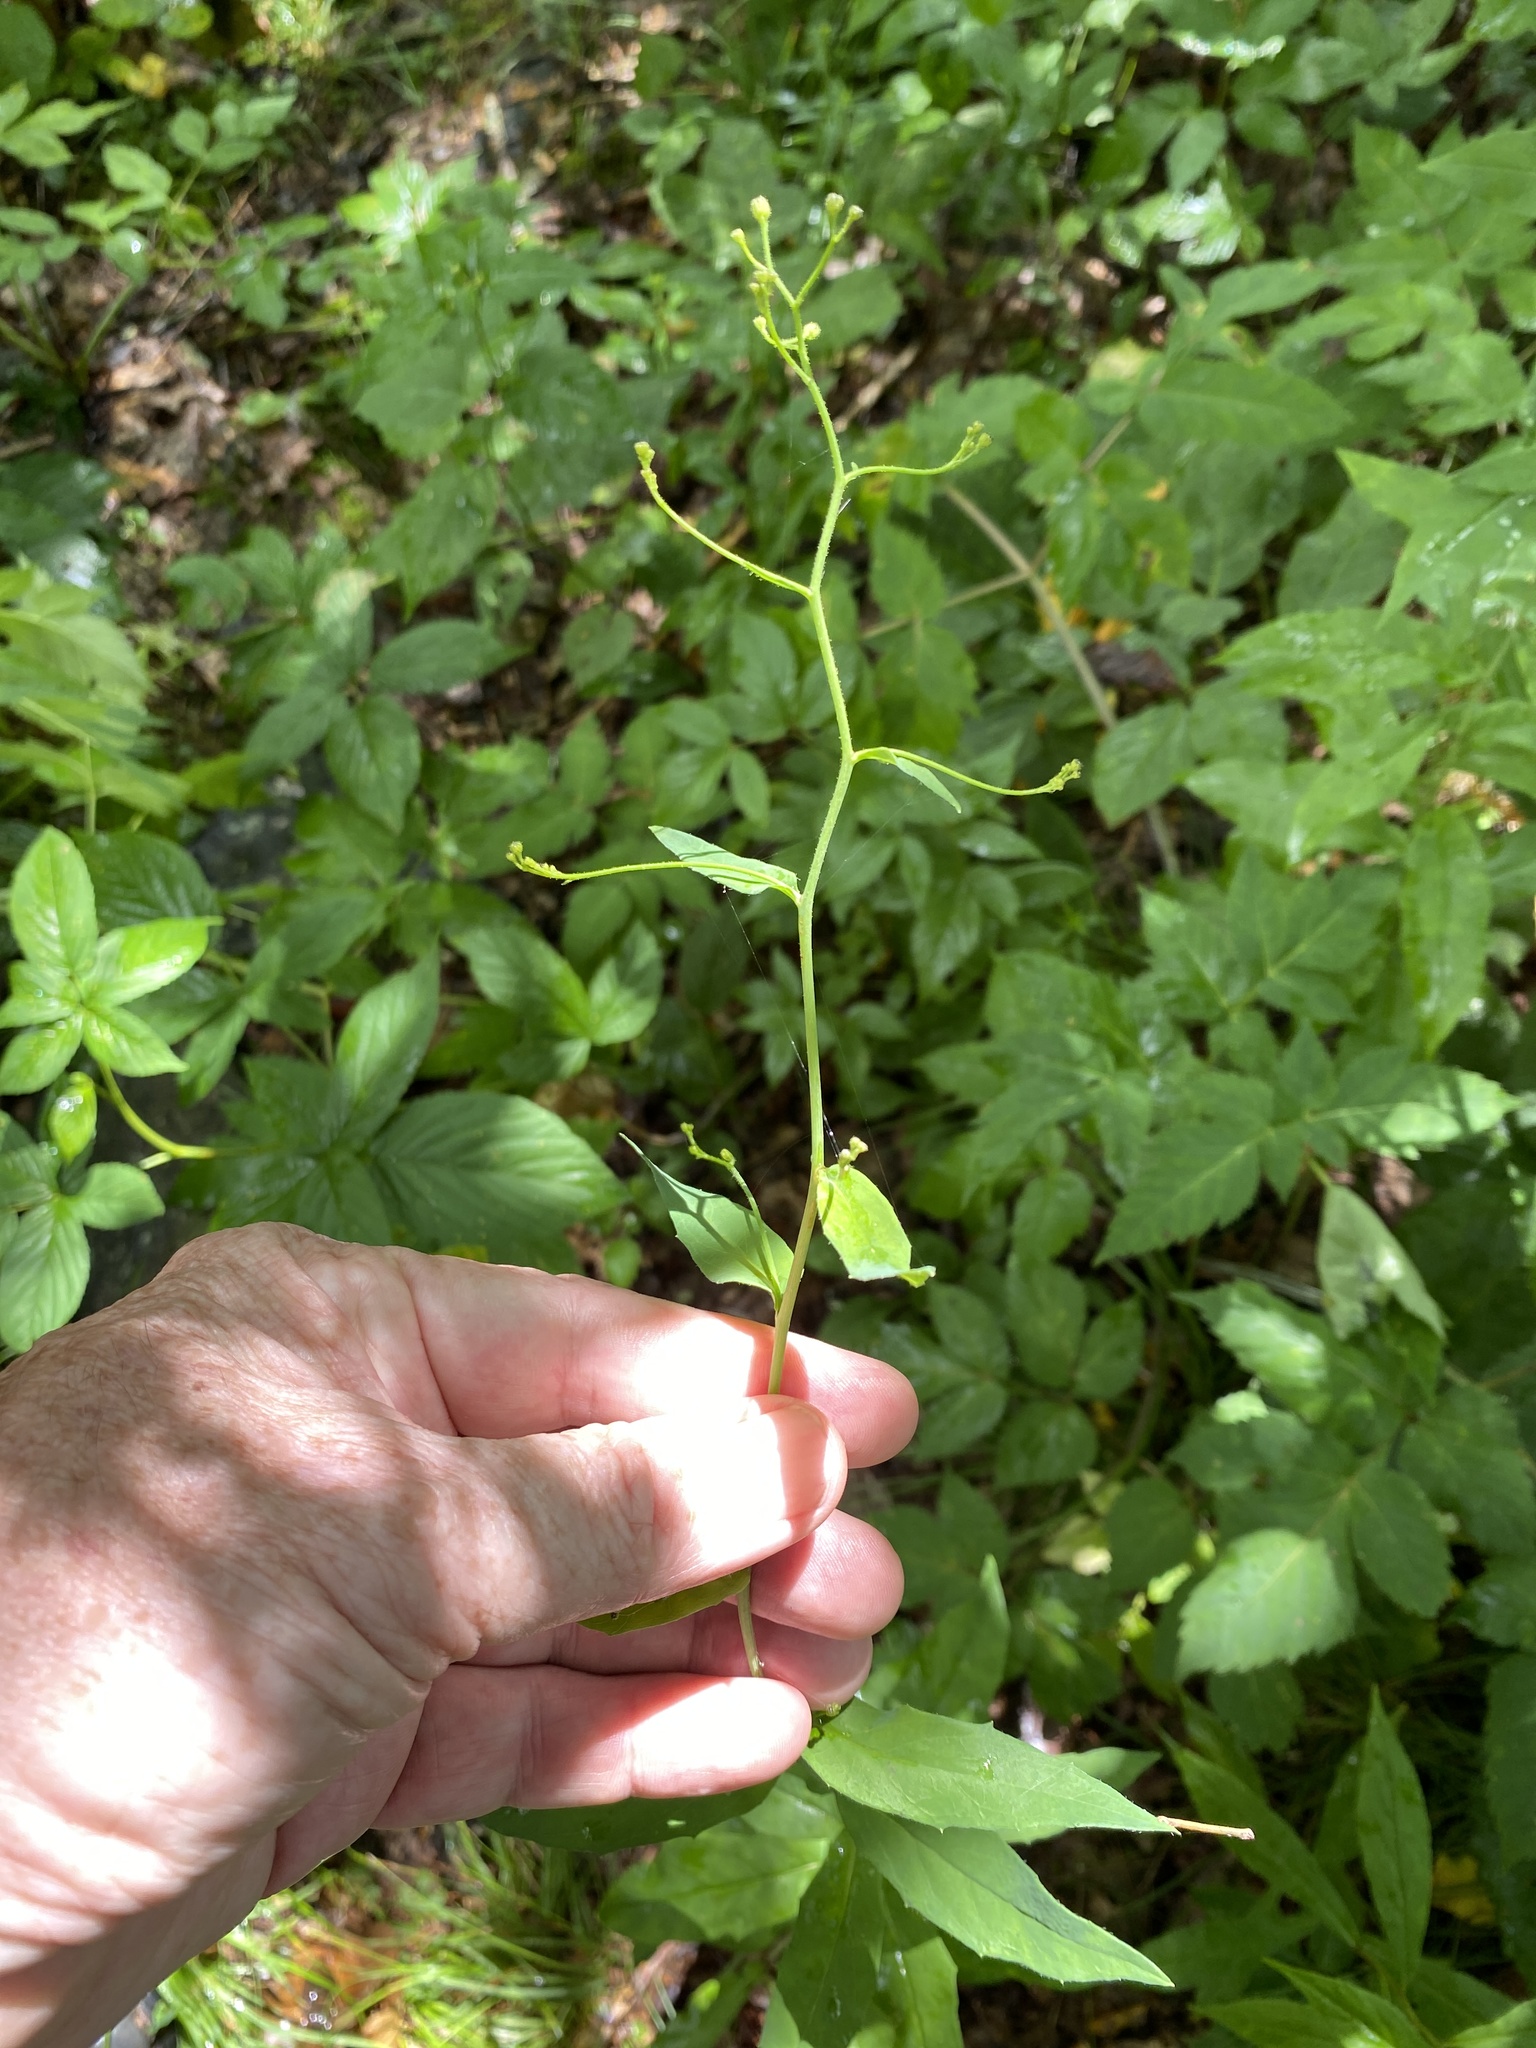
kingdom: Plantae
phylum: Tracheophyta
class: Magnoliopsida
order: Asterales
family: Asteraceae
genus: Hieracium
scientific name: Hieracium paniculatum
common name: Allegheny hawkweed
